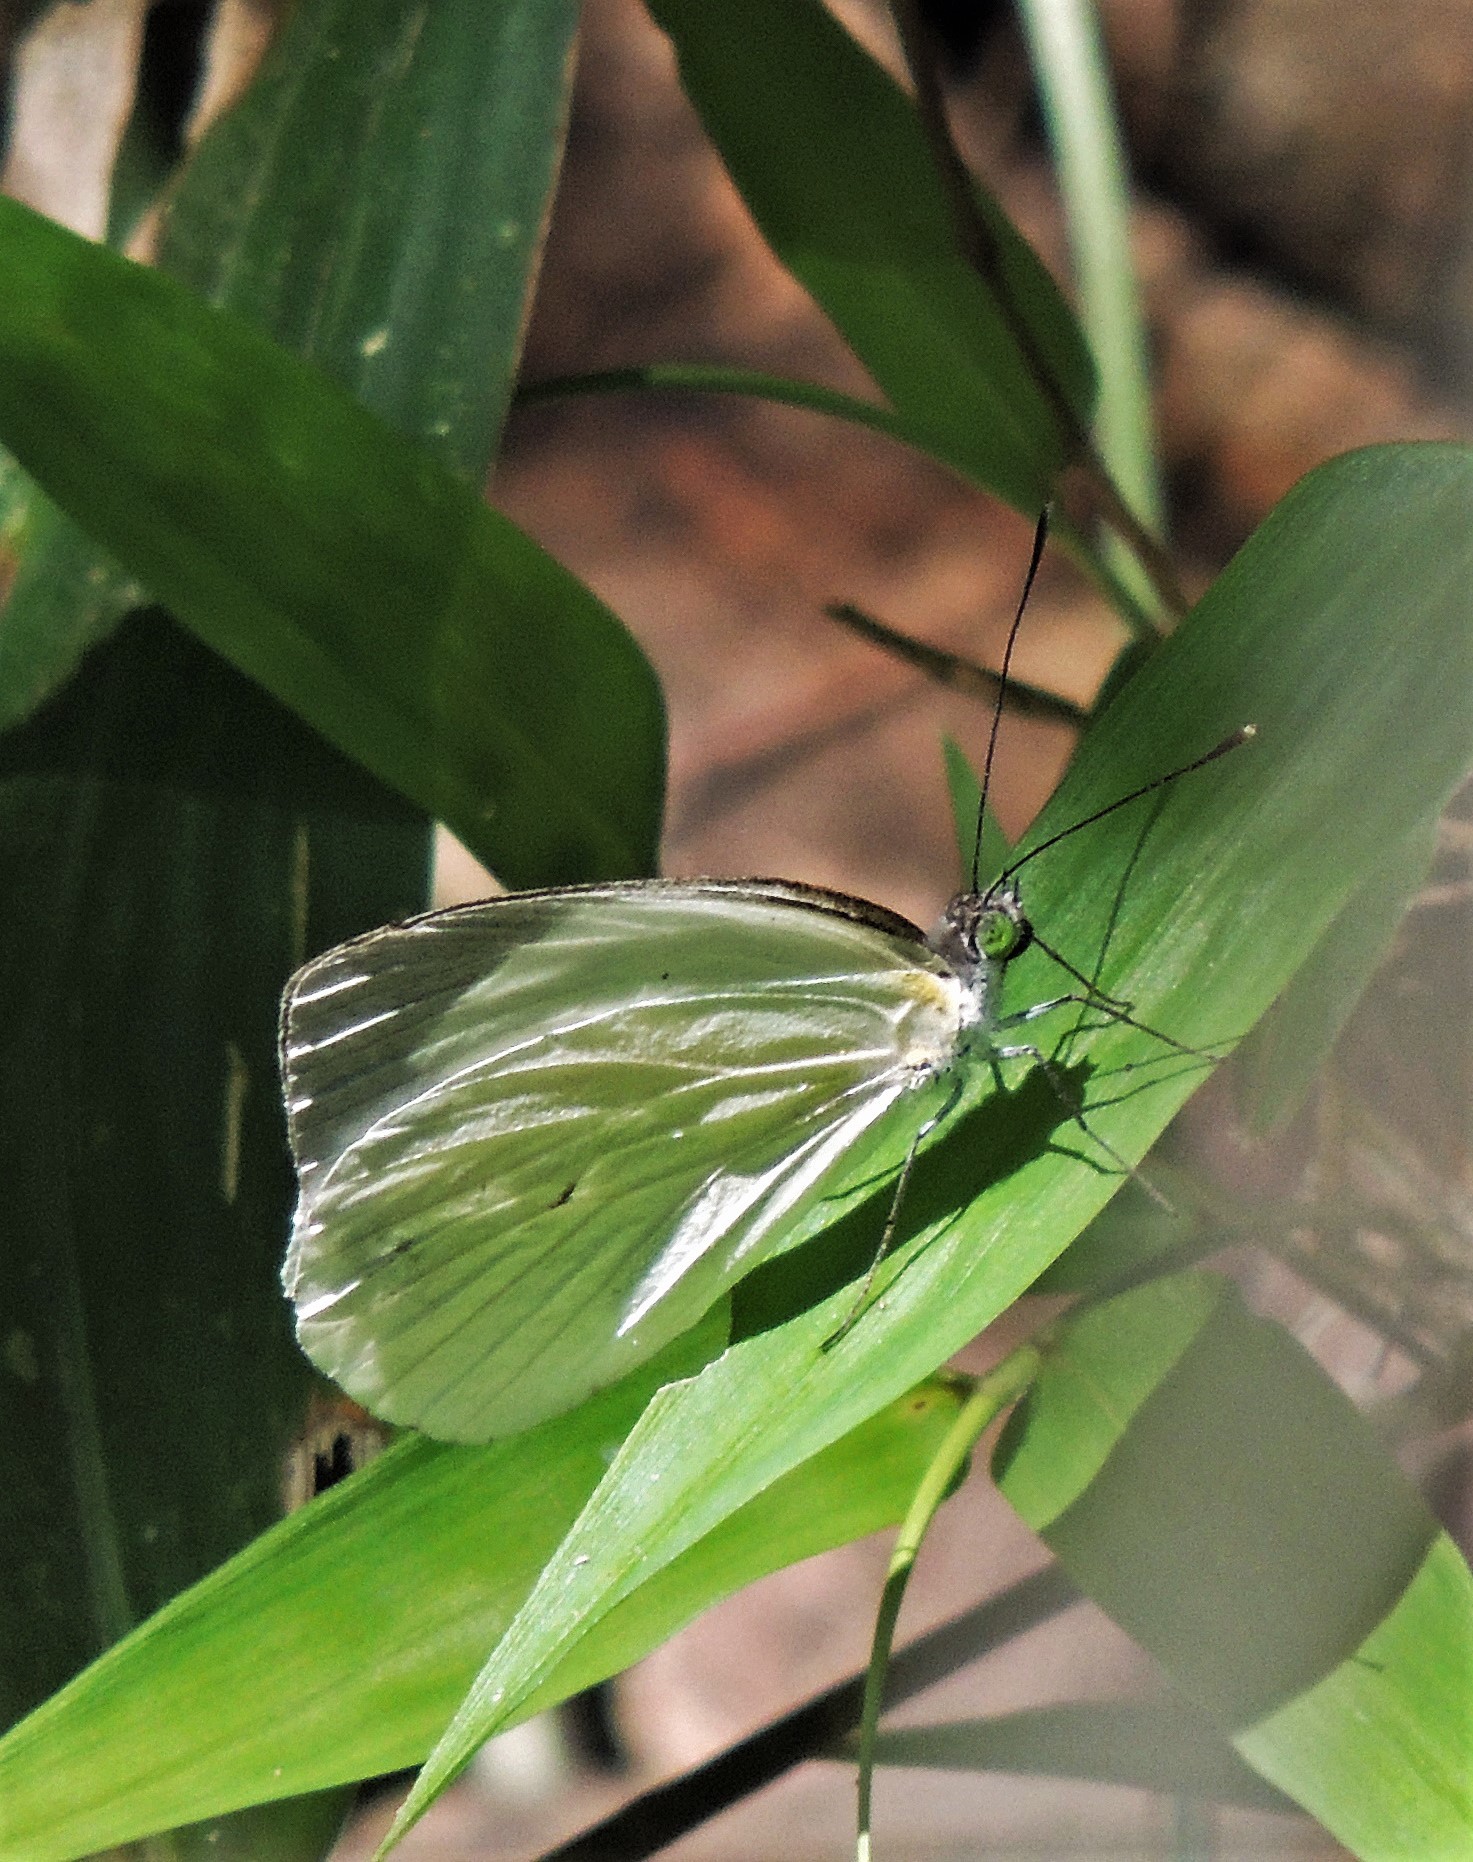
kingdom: Animalia
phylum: Arthropoda
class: Insecta
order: Lepidoptera
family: Pieridae
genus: Leptophobia
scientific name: Leptophobia aripa
